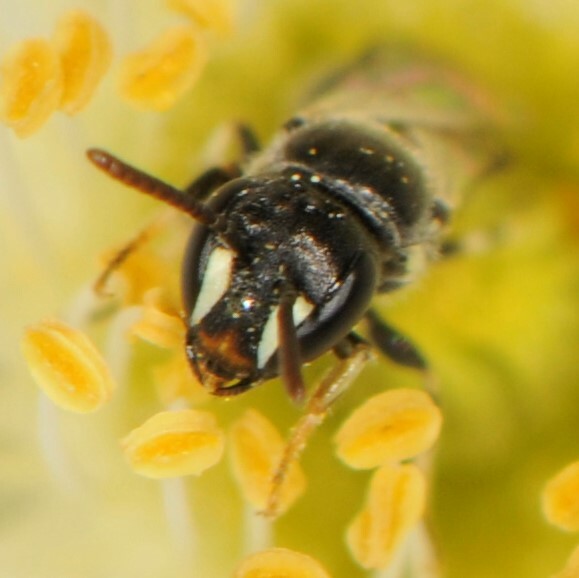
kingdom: Animalia
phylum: Arthropoda
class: Insecta
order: Hymenoptera
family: Colletidae
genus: Hylaeus
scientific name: Hylaeus
